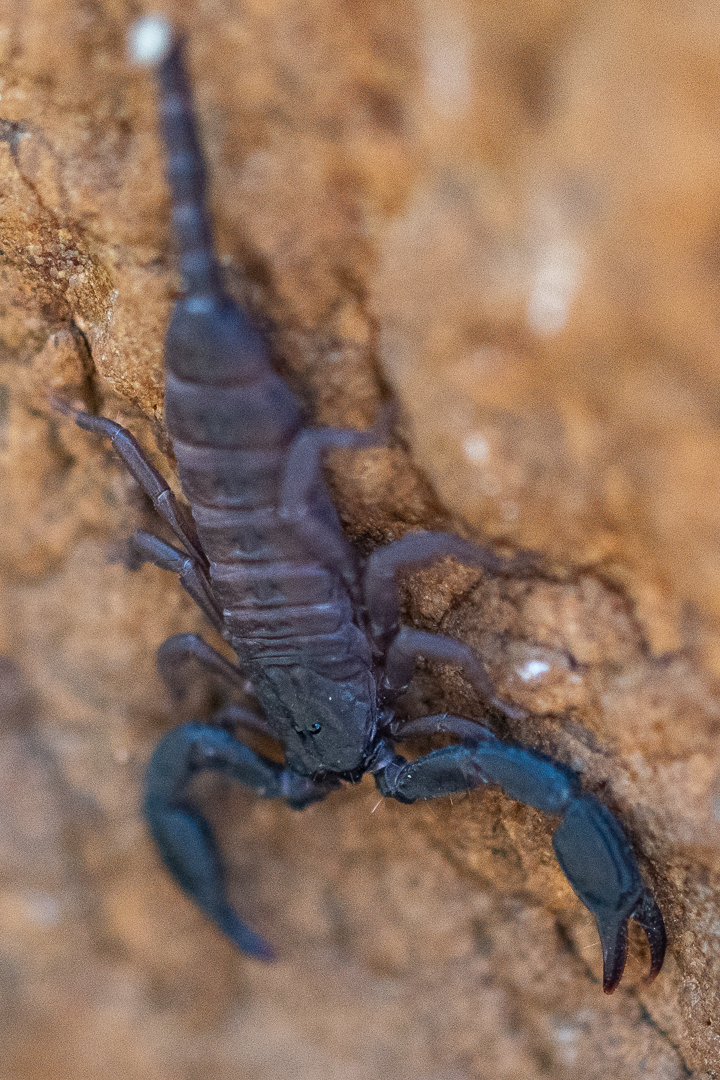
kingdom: Animalia
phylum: Arthropoda
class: Arachnida
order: Scorpiones
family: Hormuridae
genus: Opisthacanthus
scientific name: Opisthacanthus capensis
